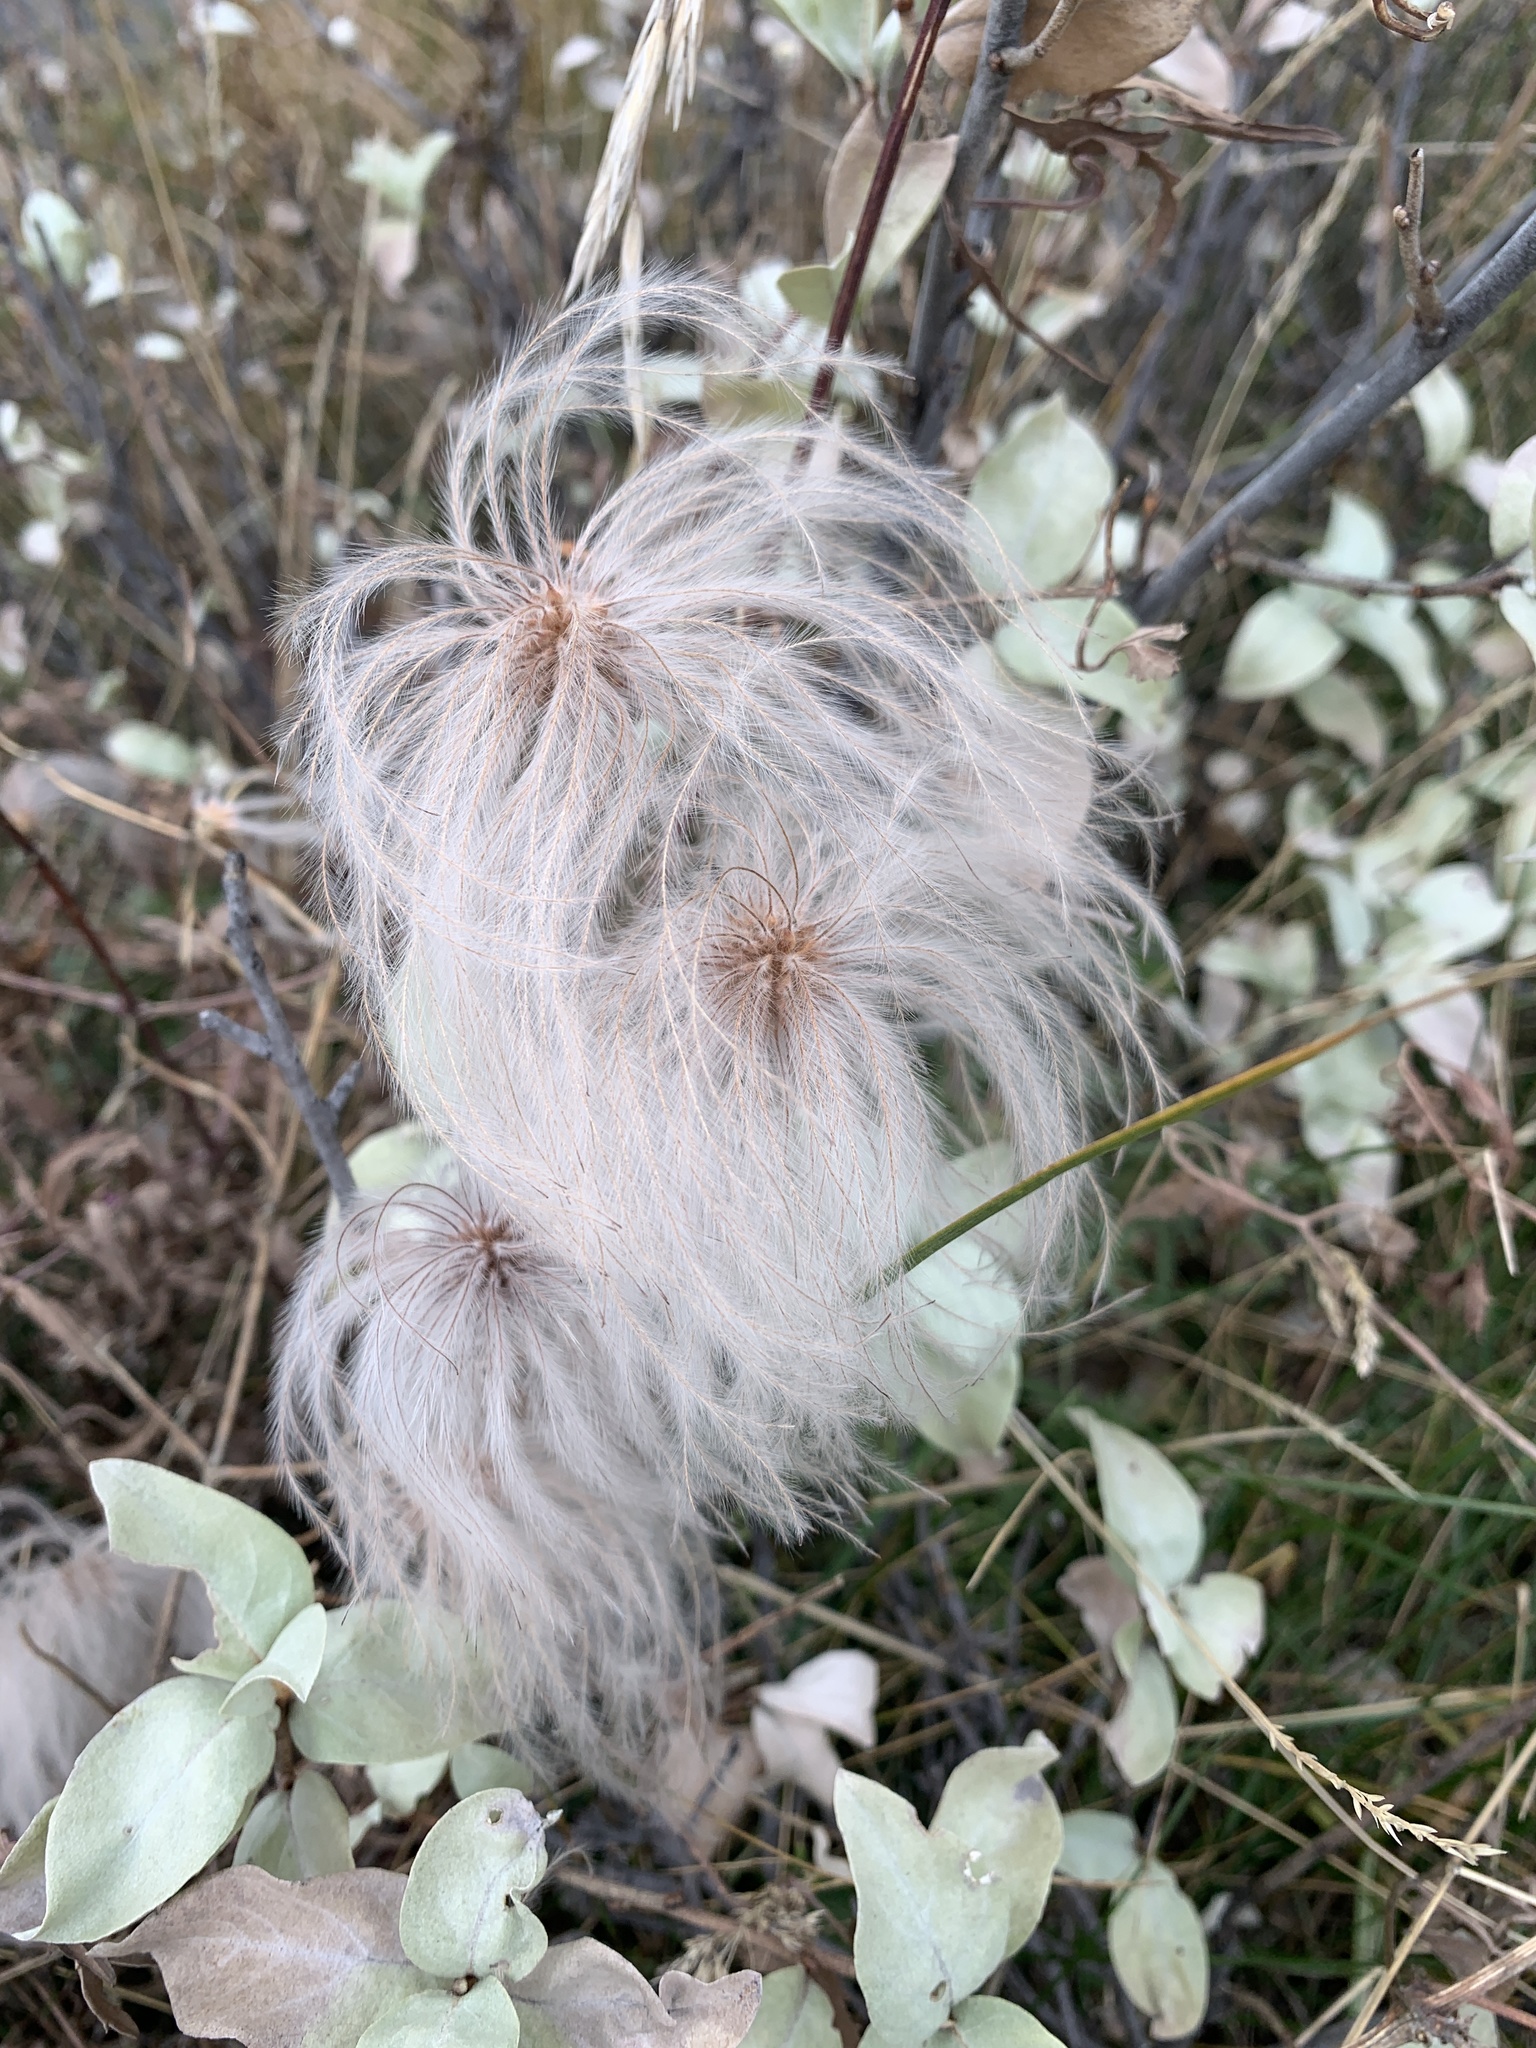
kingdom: Plantae
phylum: Tracheophyta
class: Magnoliopsida
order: Ranunculales
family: Ranunculaceae
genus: Clematis
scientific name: Clematis tangutica
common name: Orange-peel clematis
